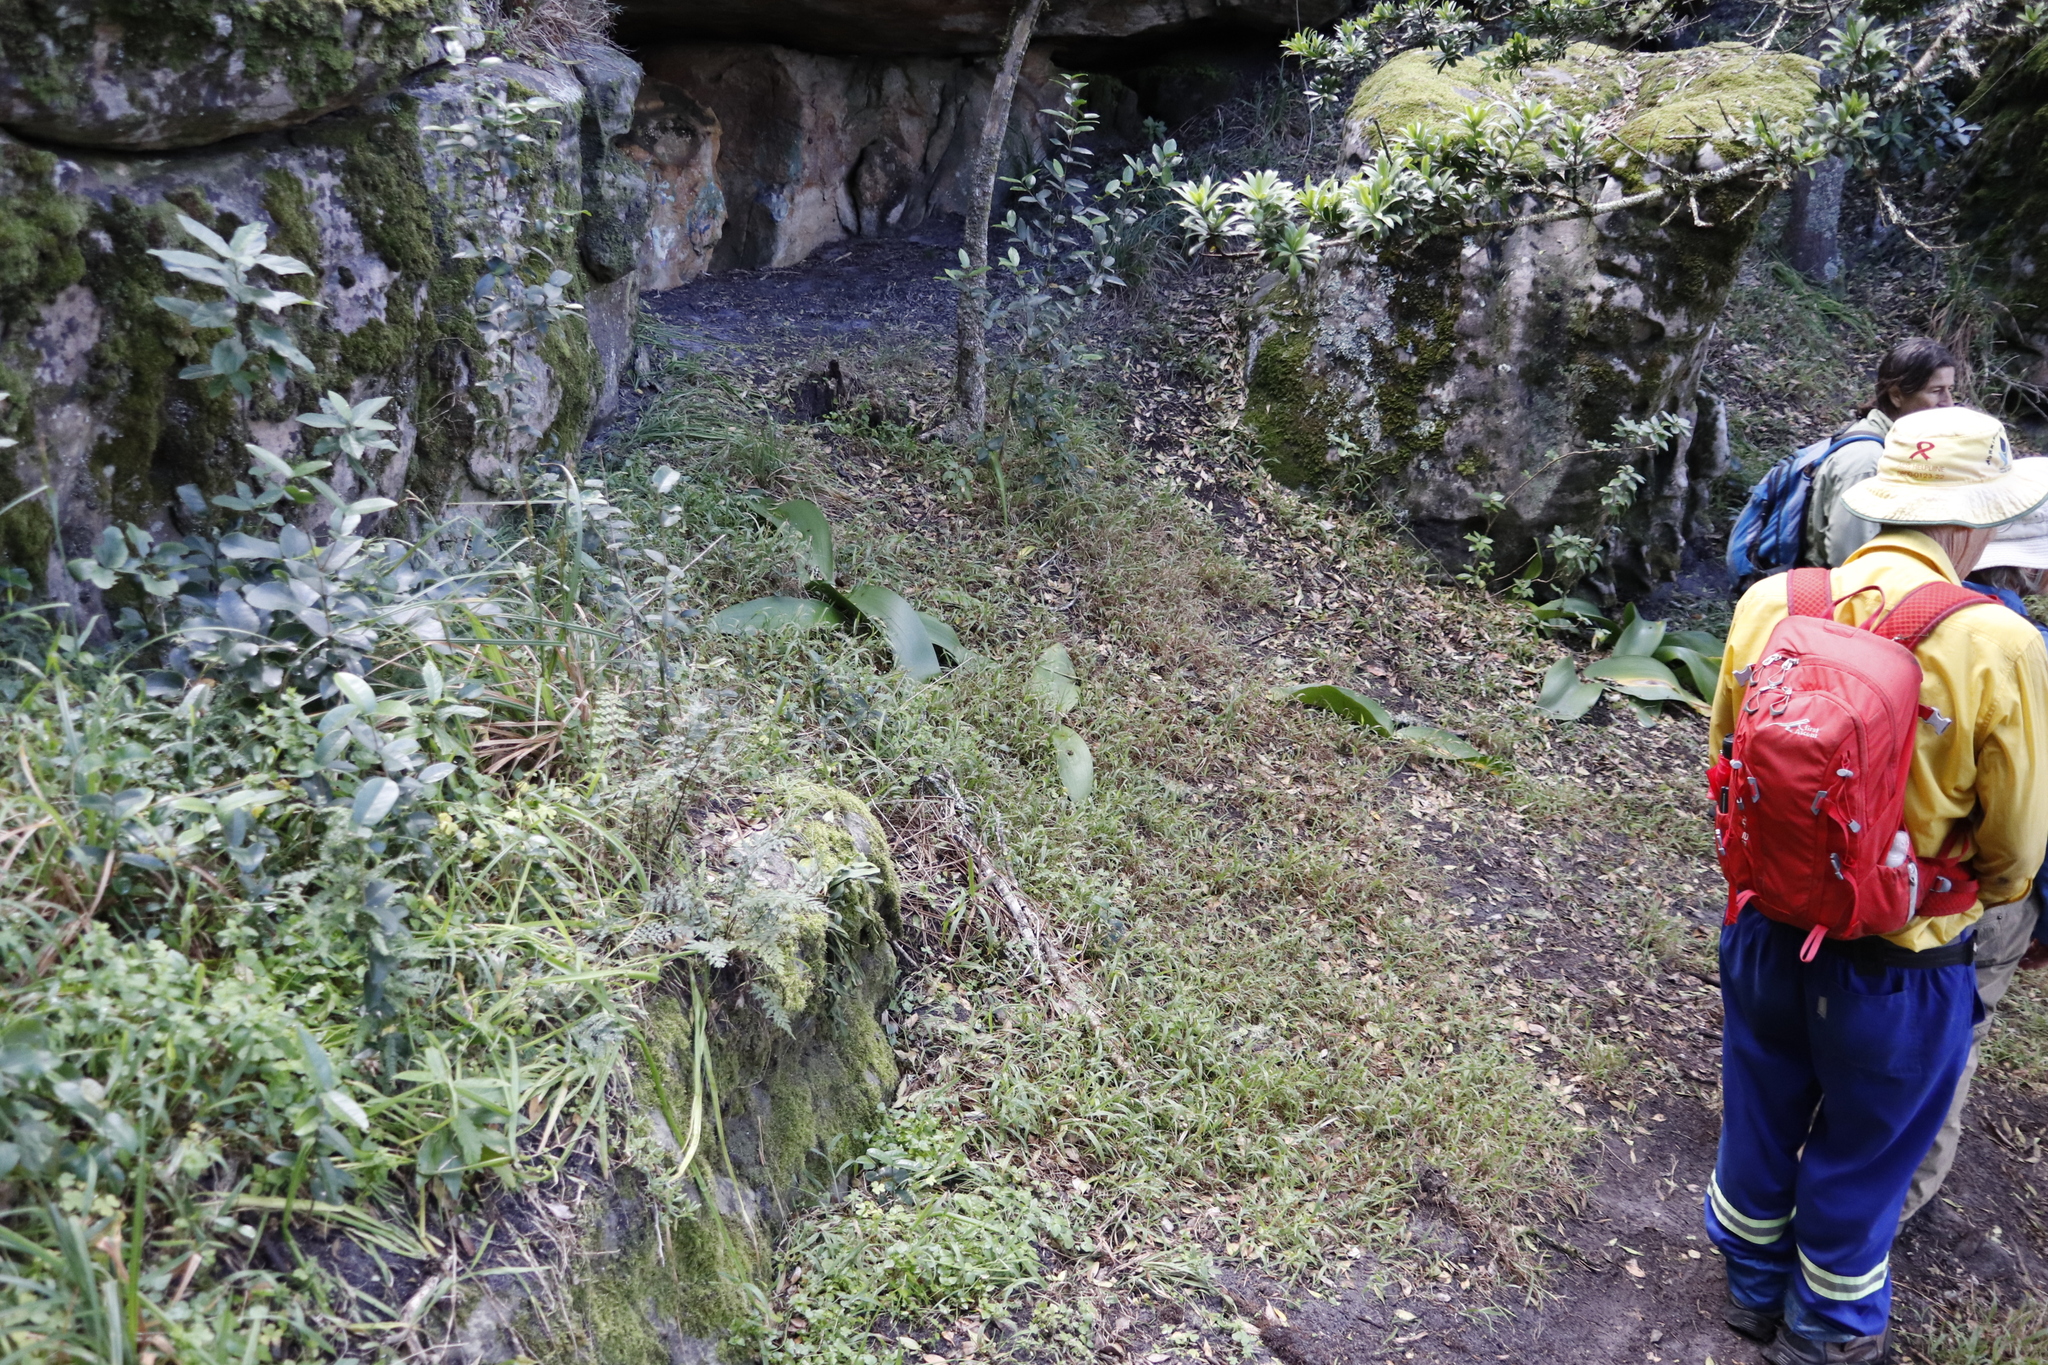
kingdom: Plantae
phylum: Tracheophyta
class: Liliopsida
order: Asparagales
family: Amaryllidaceae
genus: Haemanthus
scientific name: Haemanthus coccineus
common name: Cape-tulip
